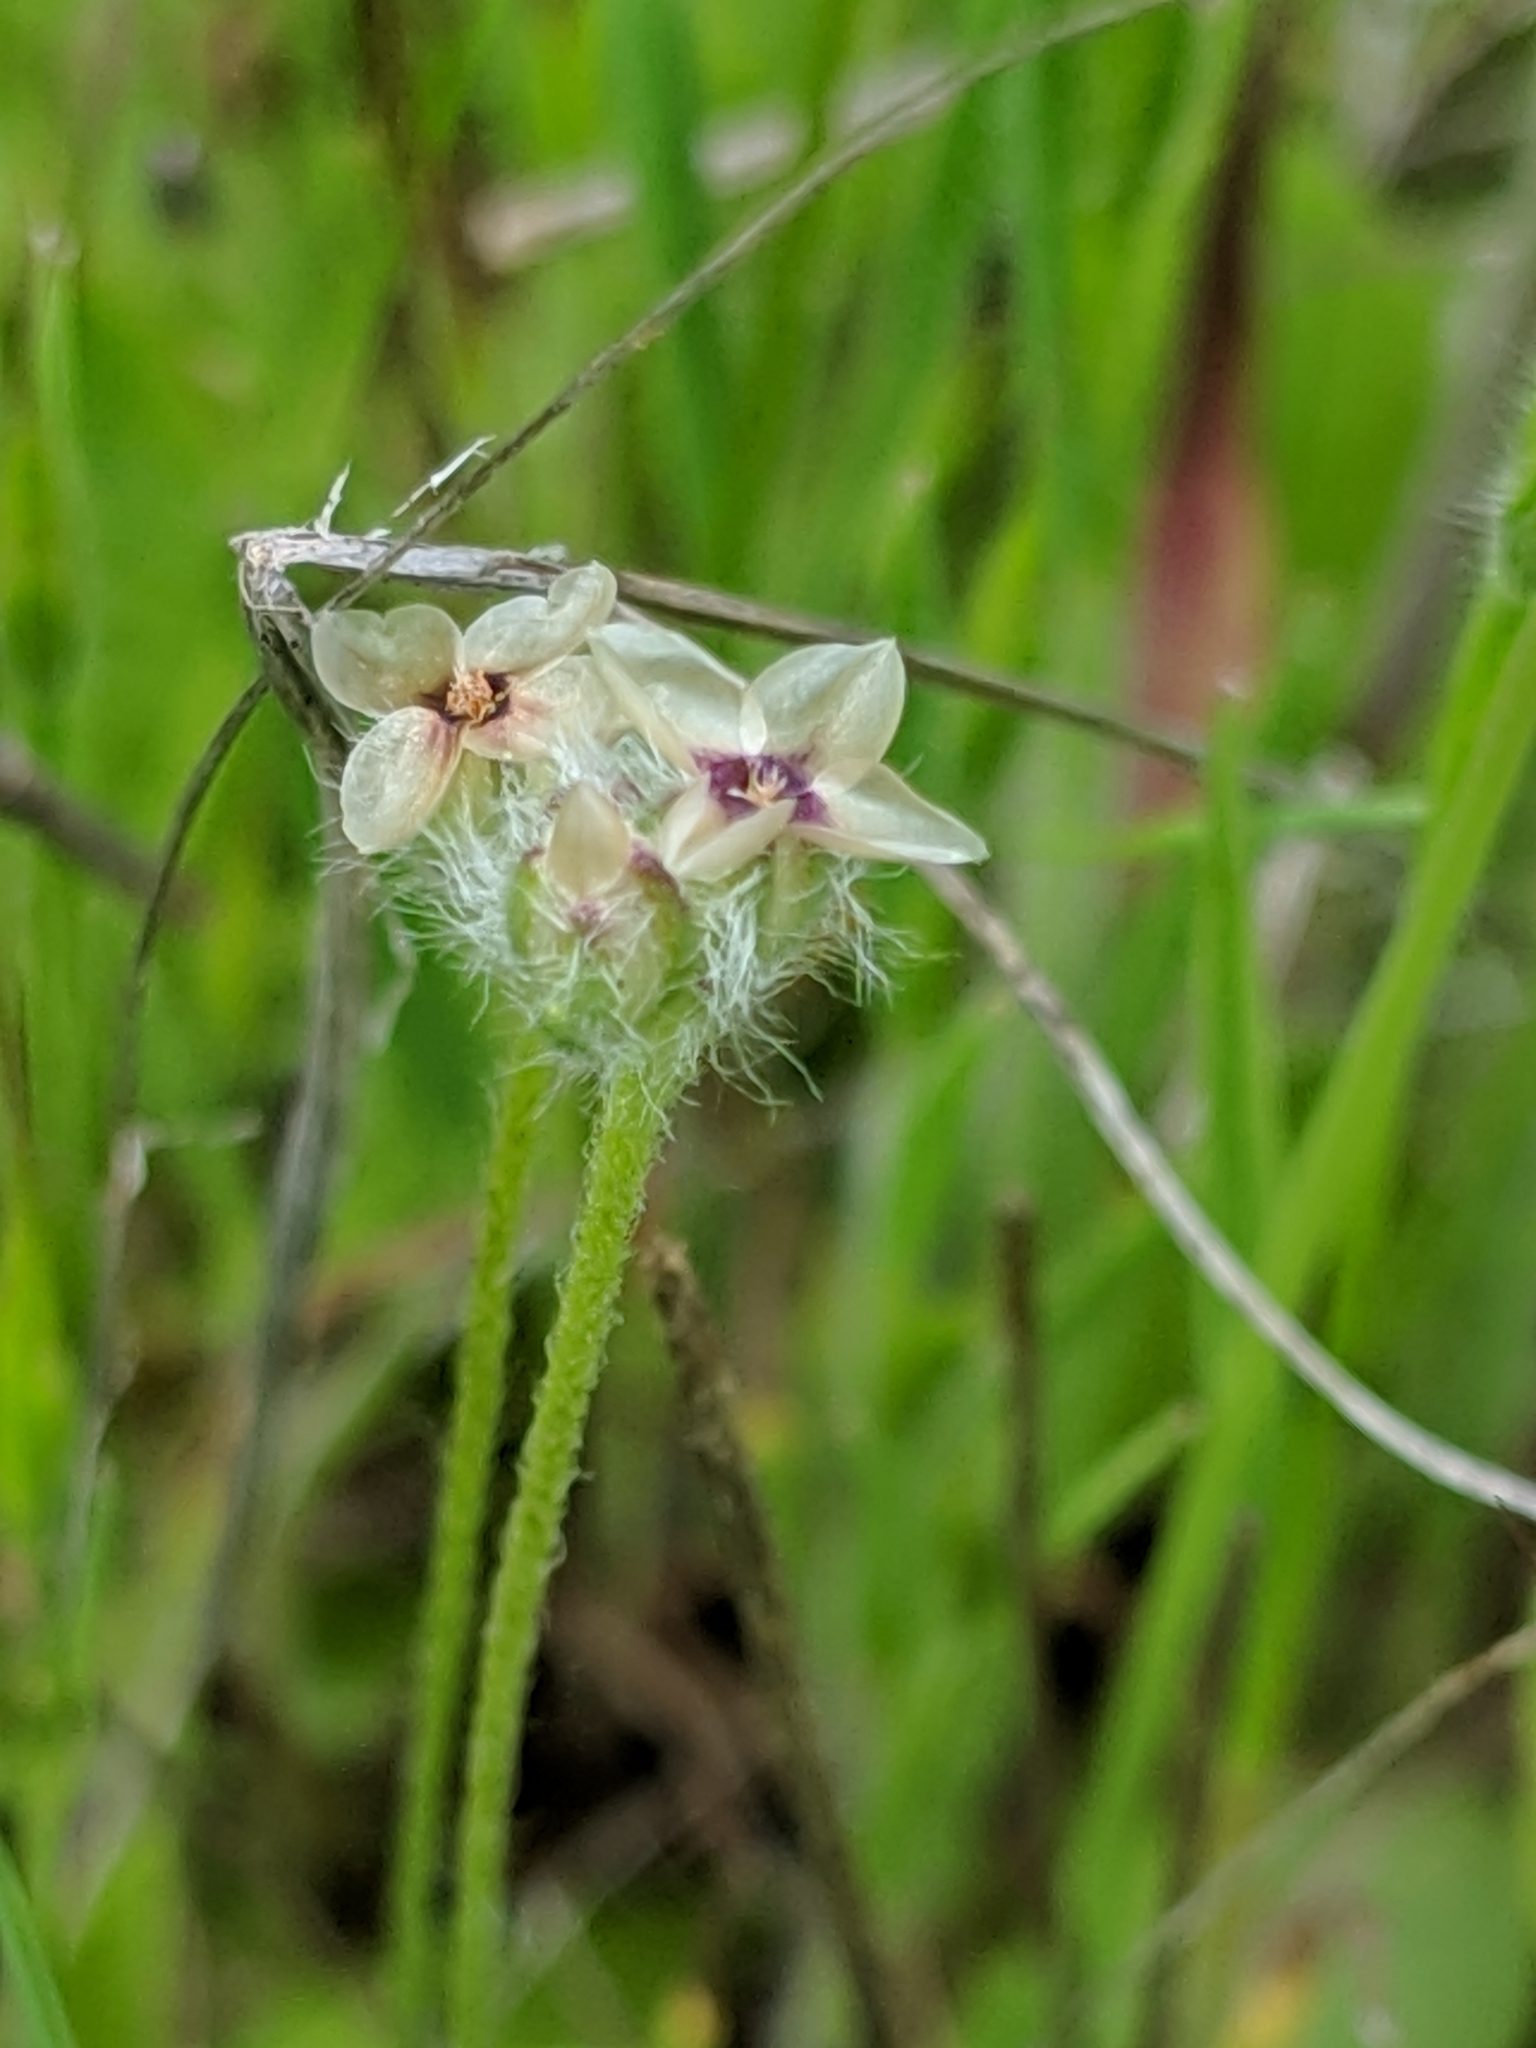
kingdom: Plantae
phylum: Tracheophyta
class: Magnoliopsida
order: Lamiales
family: Plantaginaceae
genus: Plantago
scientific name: Plantago erecta
